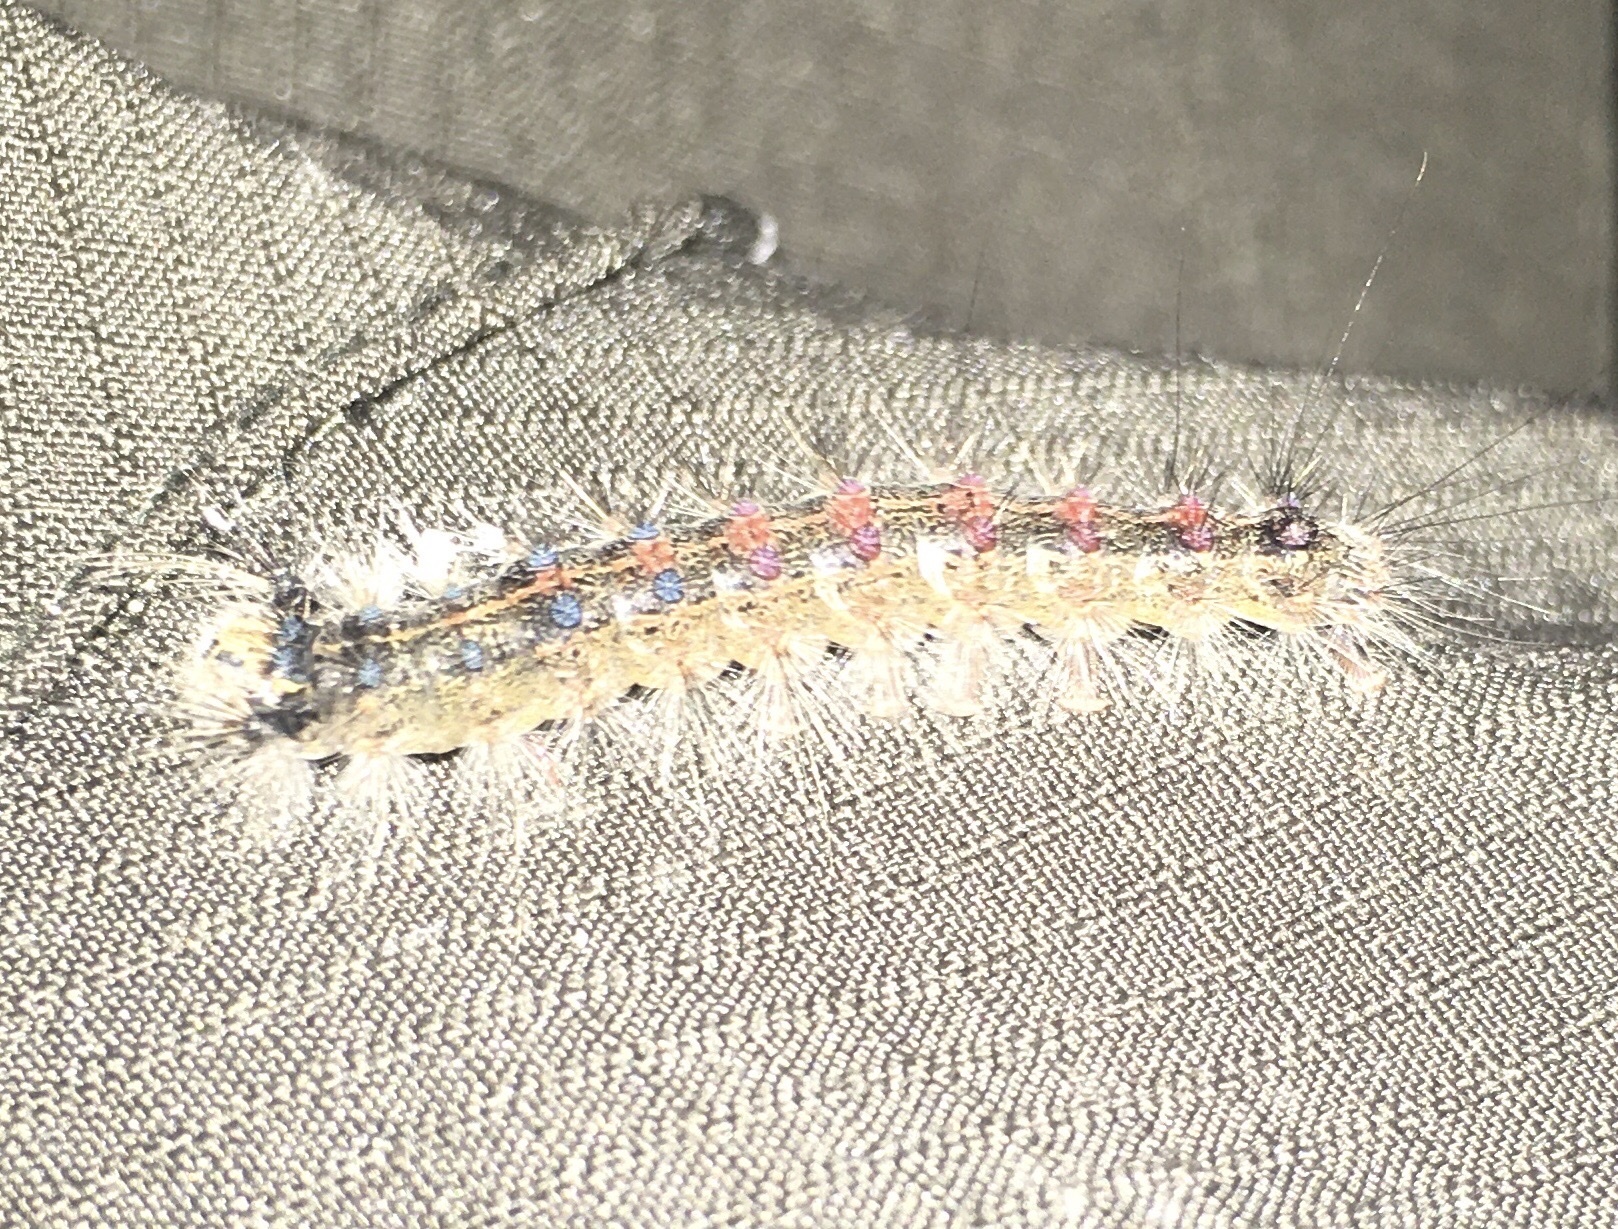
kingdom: Animalia
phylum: Arthropoda
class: Insecta
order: Lepidoptera
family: Erebidae
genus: Lymantria
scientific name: Lymantria dispar
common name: Gypsy moth
